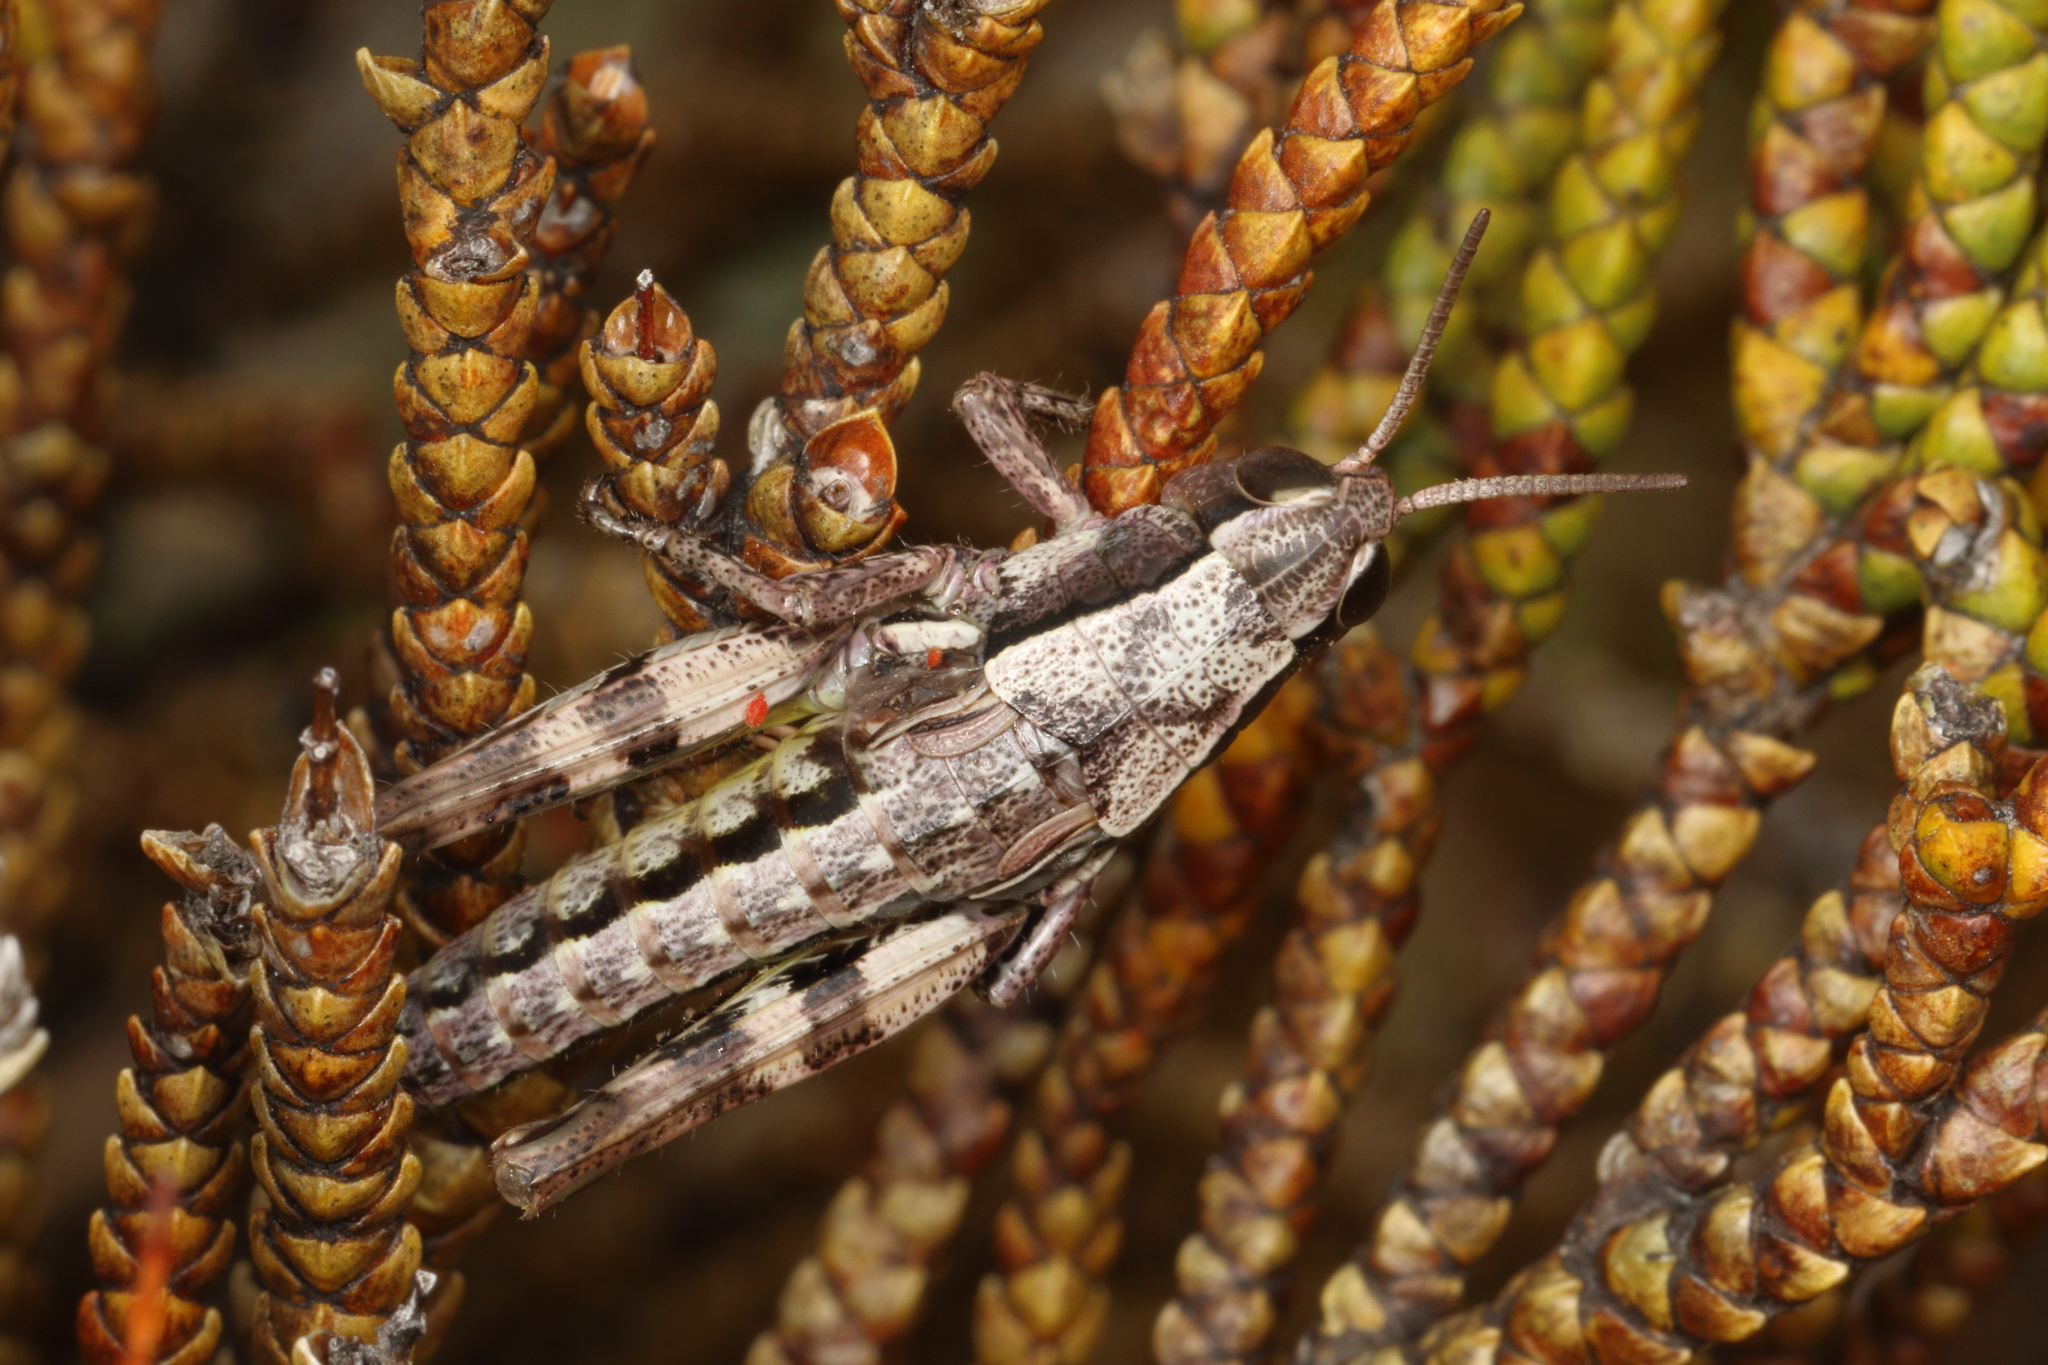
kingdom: Animalia
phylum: Arthropoda
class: Insecta
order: Orthoptera
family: Acrididae
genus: Sigaus
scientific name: Sigaus
